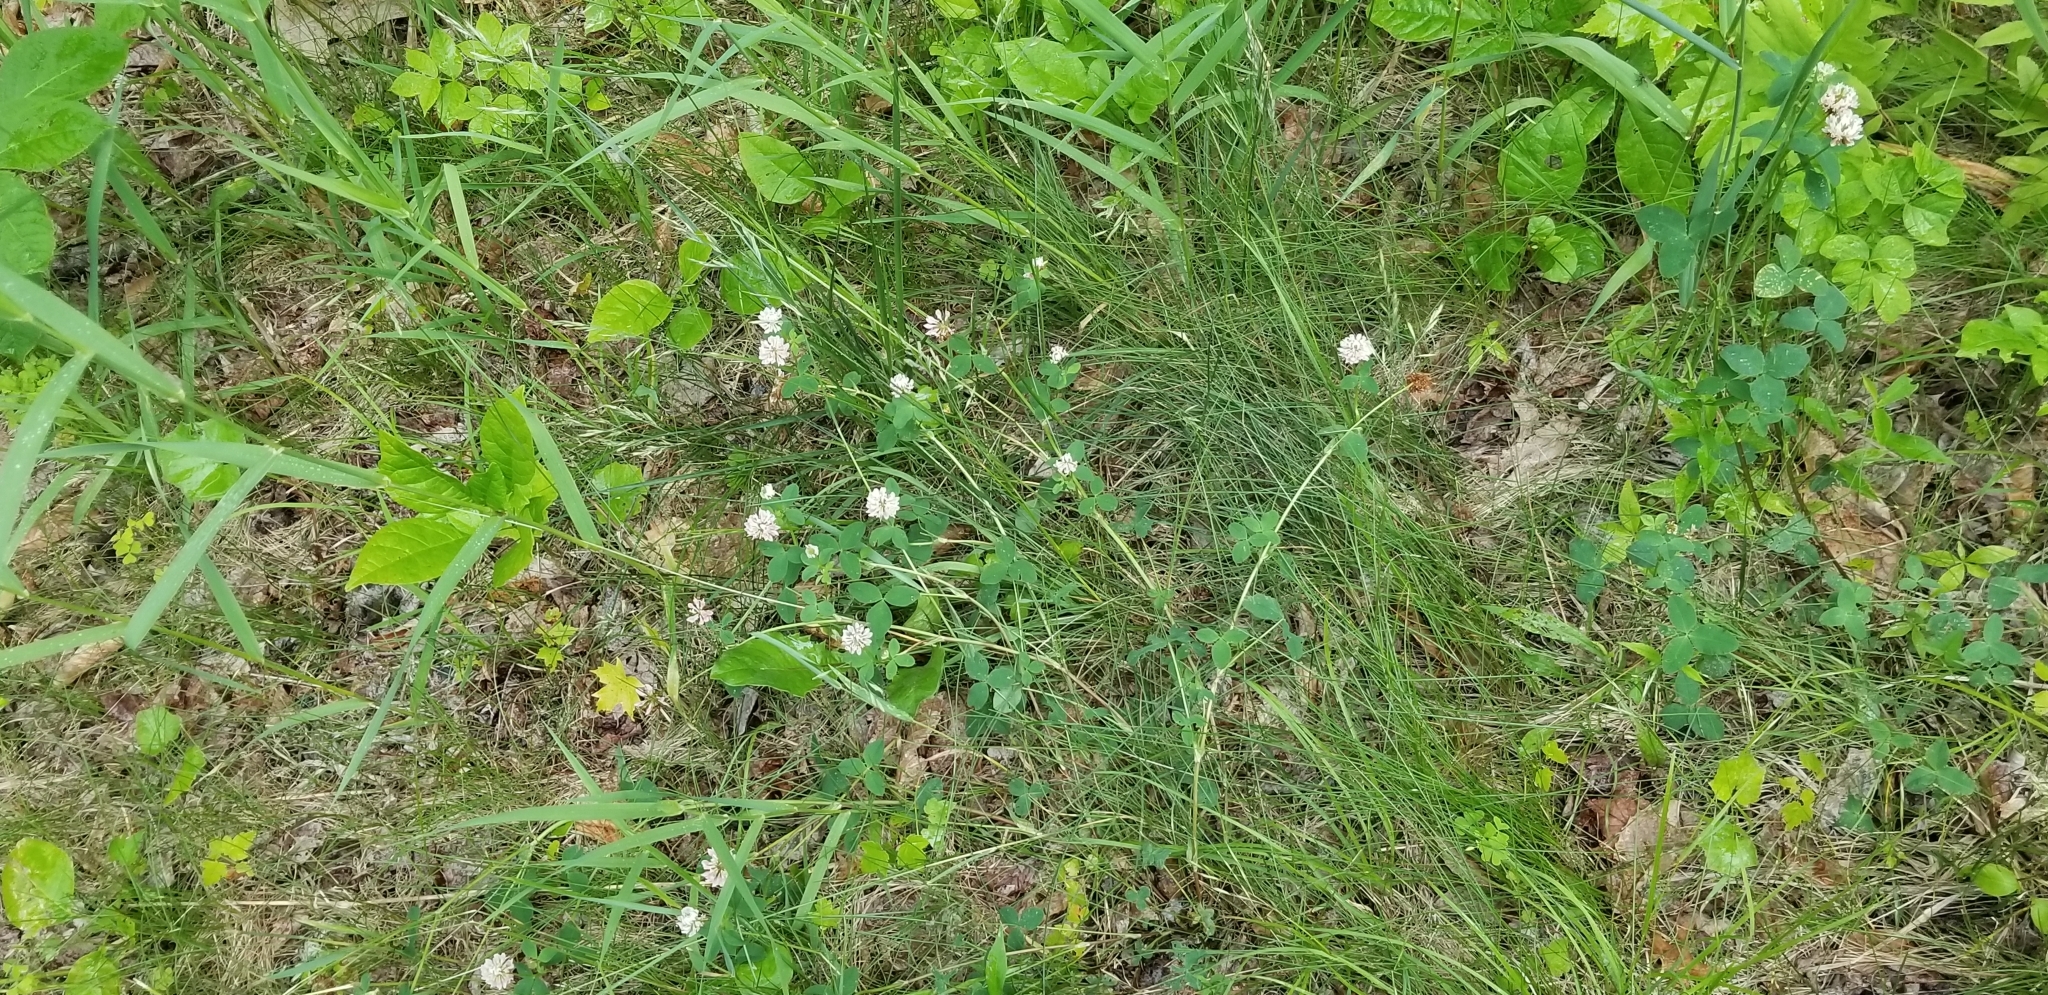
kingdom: Plantae
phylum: Tracheophyta
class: Magnoliopsida
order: Fabales
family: Fabaceae
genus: Trifolium
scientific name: Trifolium hybridum
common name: Alsike clover
